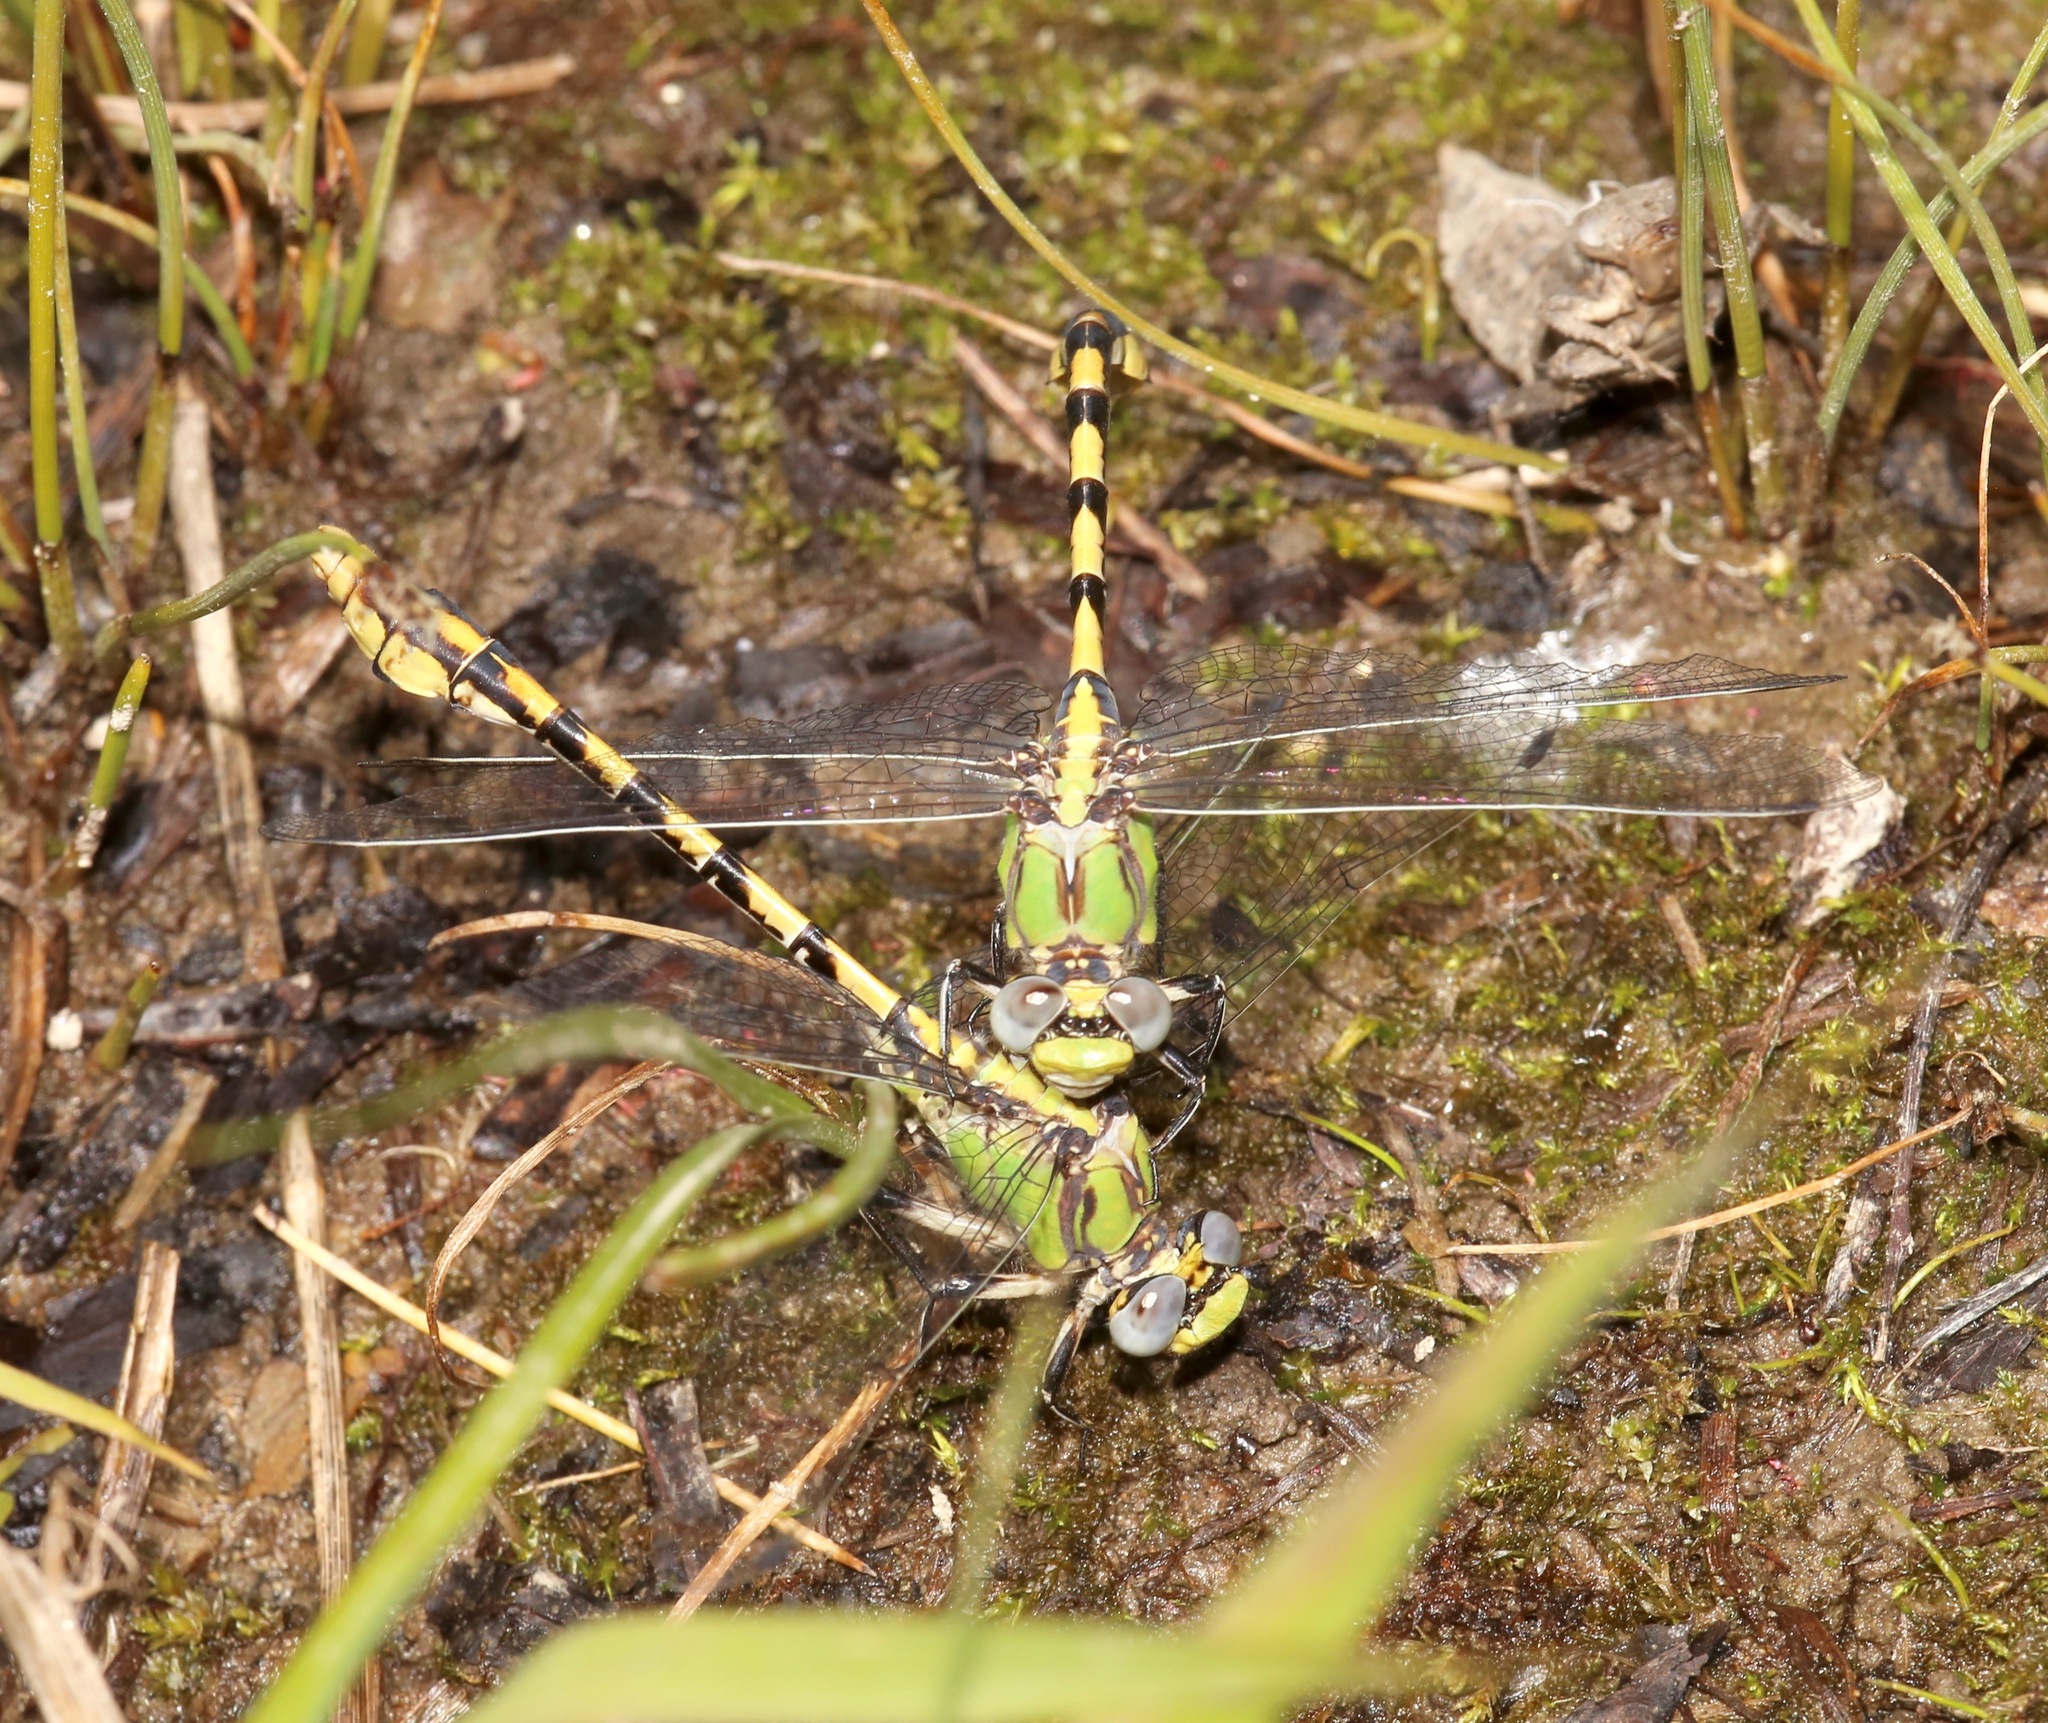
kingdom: Animalia
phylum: Arthropoda
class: Insecta
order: Odonata
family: Gomphidae
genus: Ophiogomphus
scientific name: Ophiogomphus occidentis
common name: Sinuous snaketail
